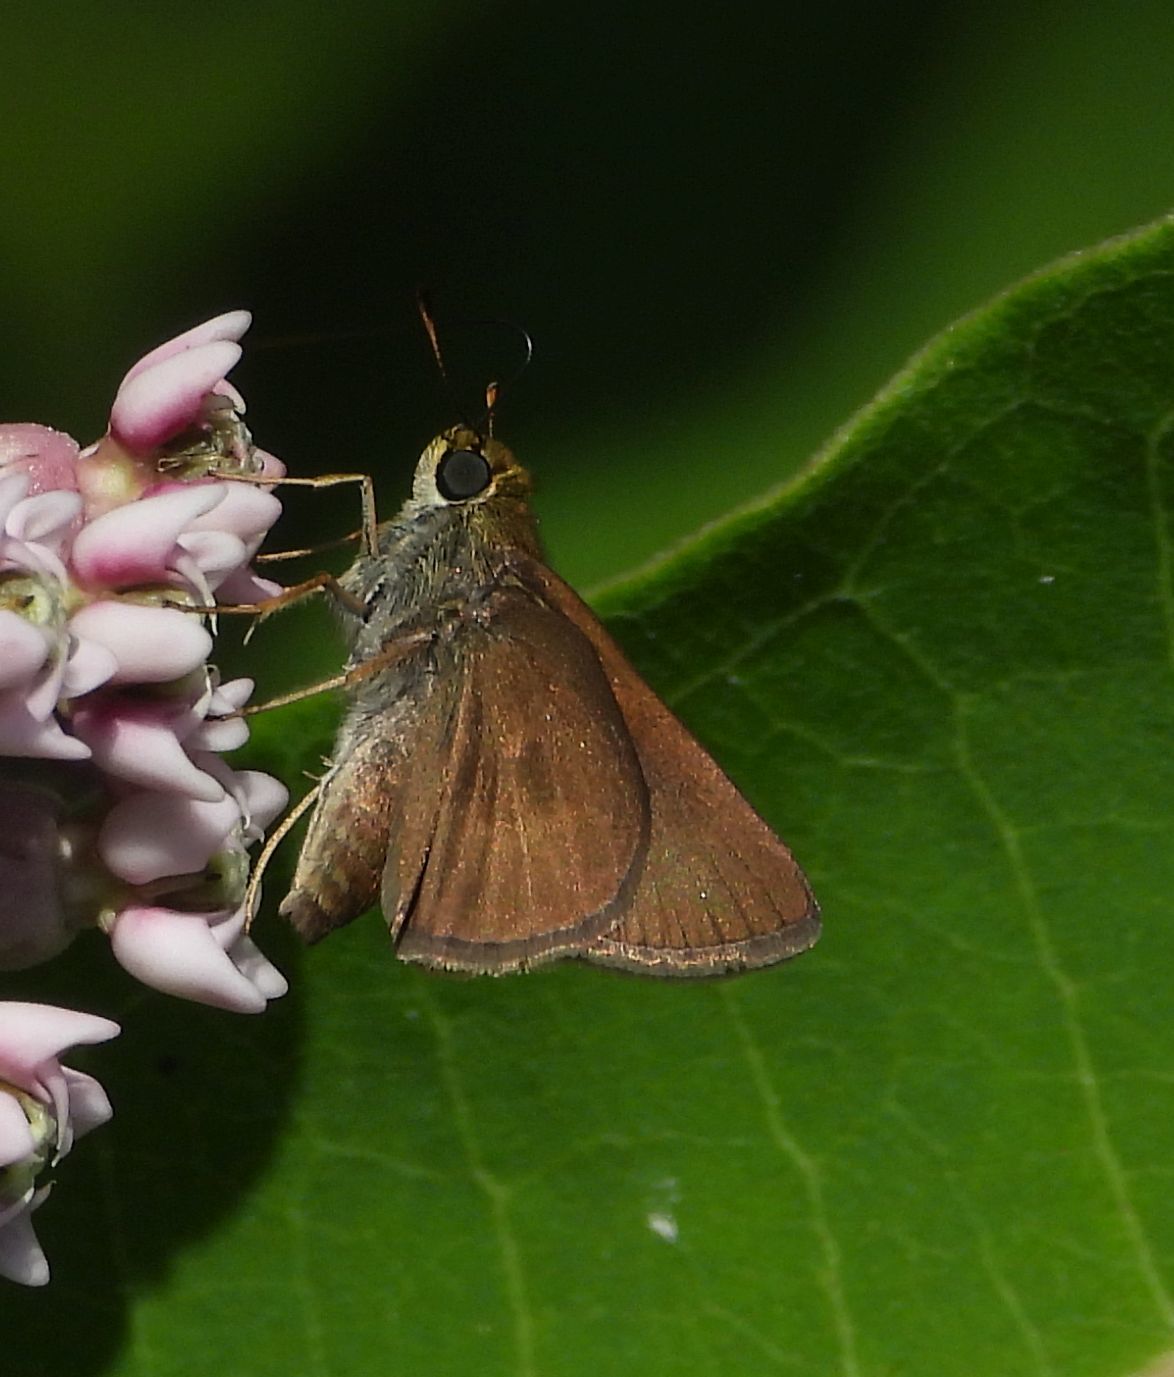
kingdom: Animalia
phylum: Arthropoda
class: Insecta
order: Lepidoptera
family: Hesperiidae
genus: Euphyes
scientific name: Euphyes vestris
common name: Dun skipper
